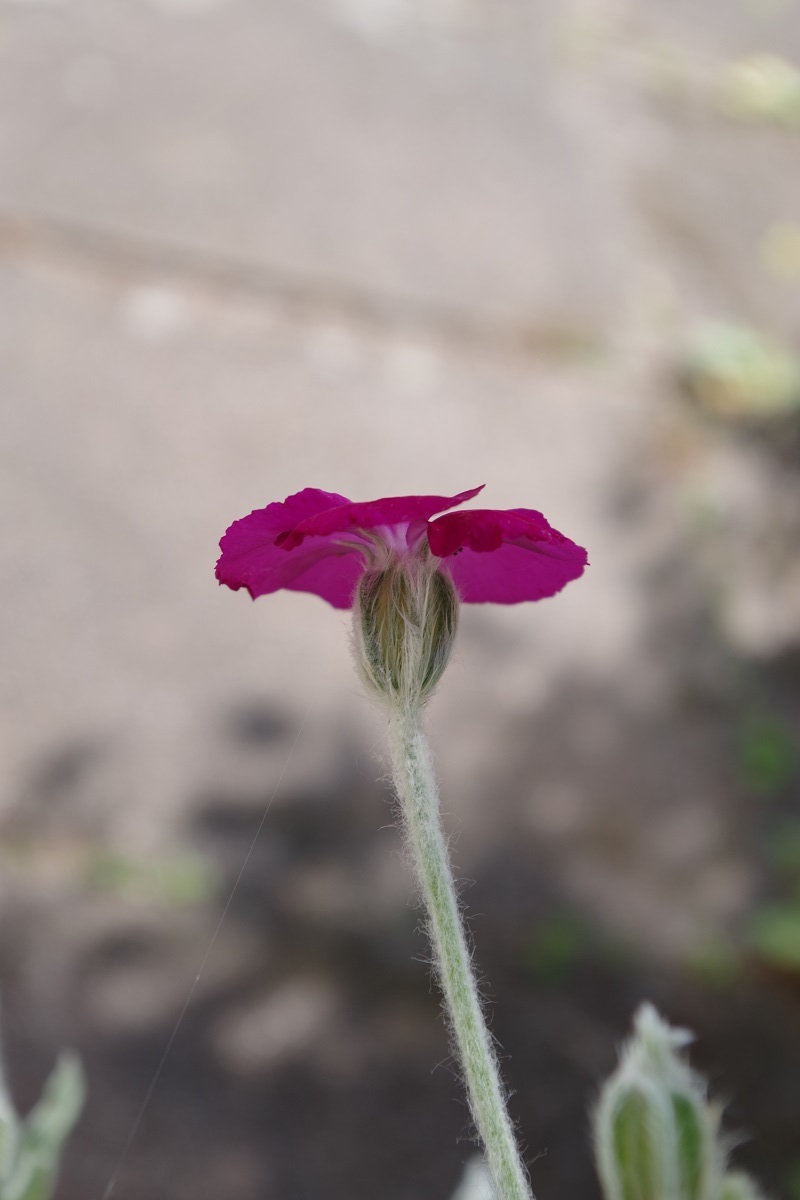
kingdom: Plantae
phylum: Tracheophyta
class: Magnoliopsida
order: Caryophyllales
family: Caryophyllaceae
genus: Silene
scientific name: Silene coronaria
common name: Rose campion
